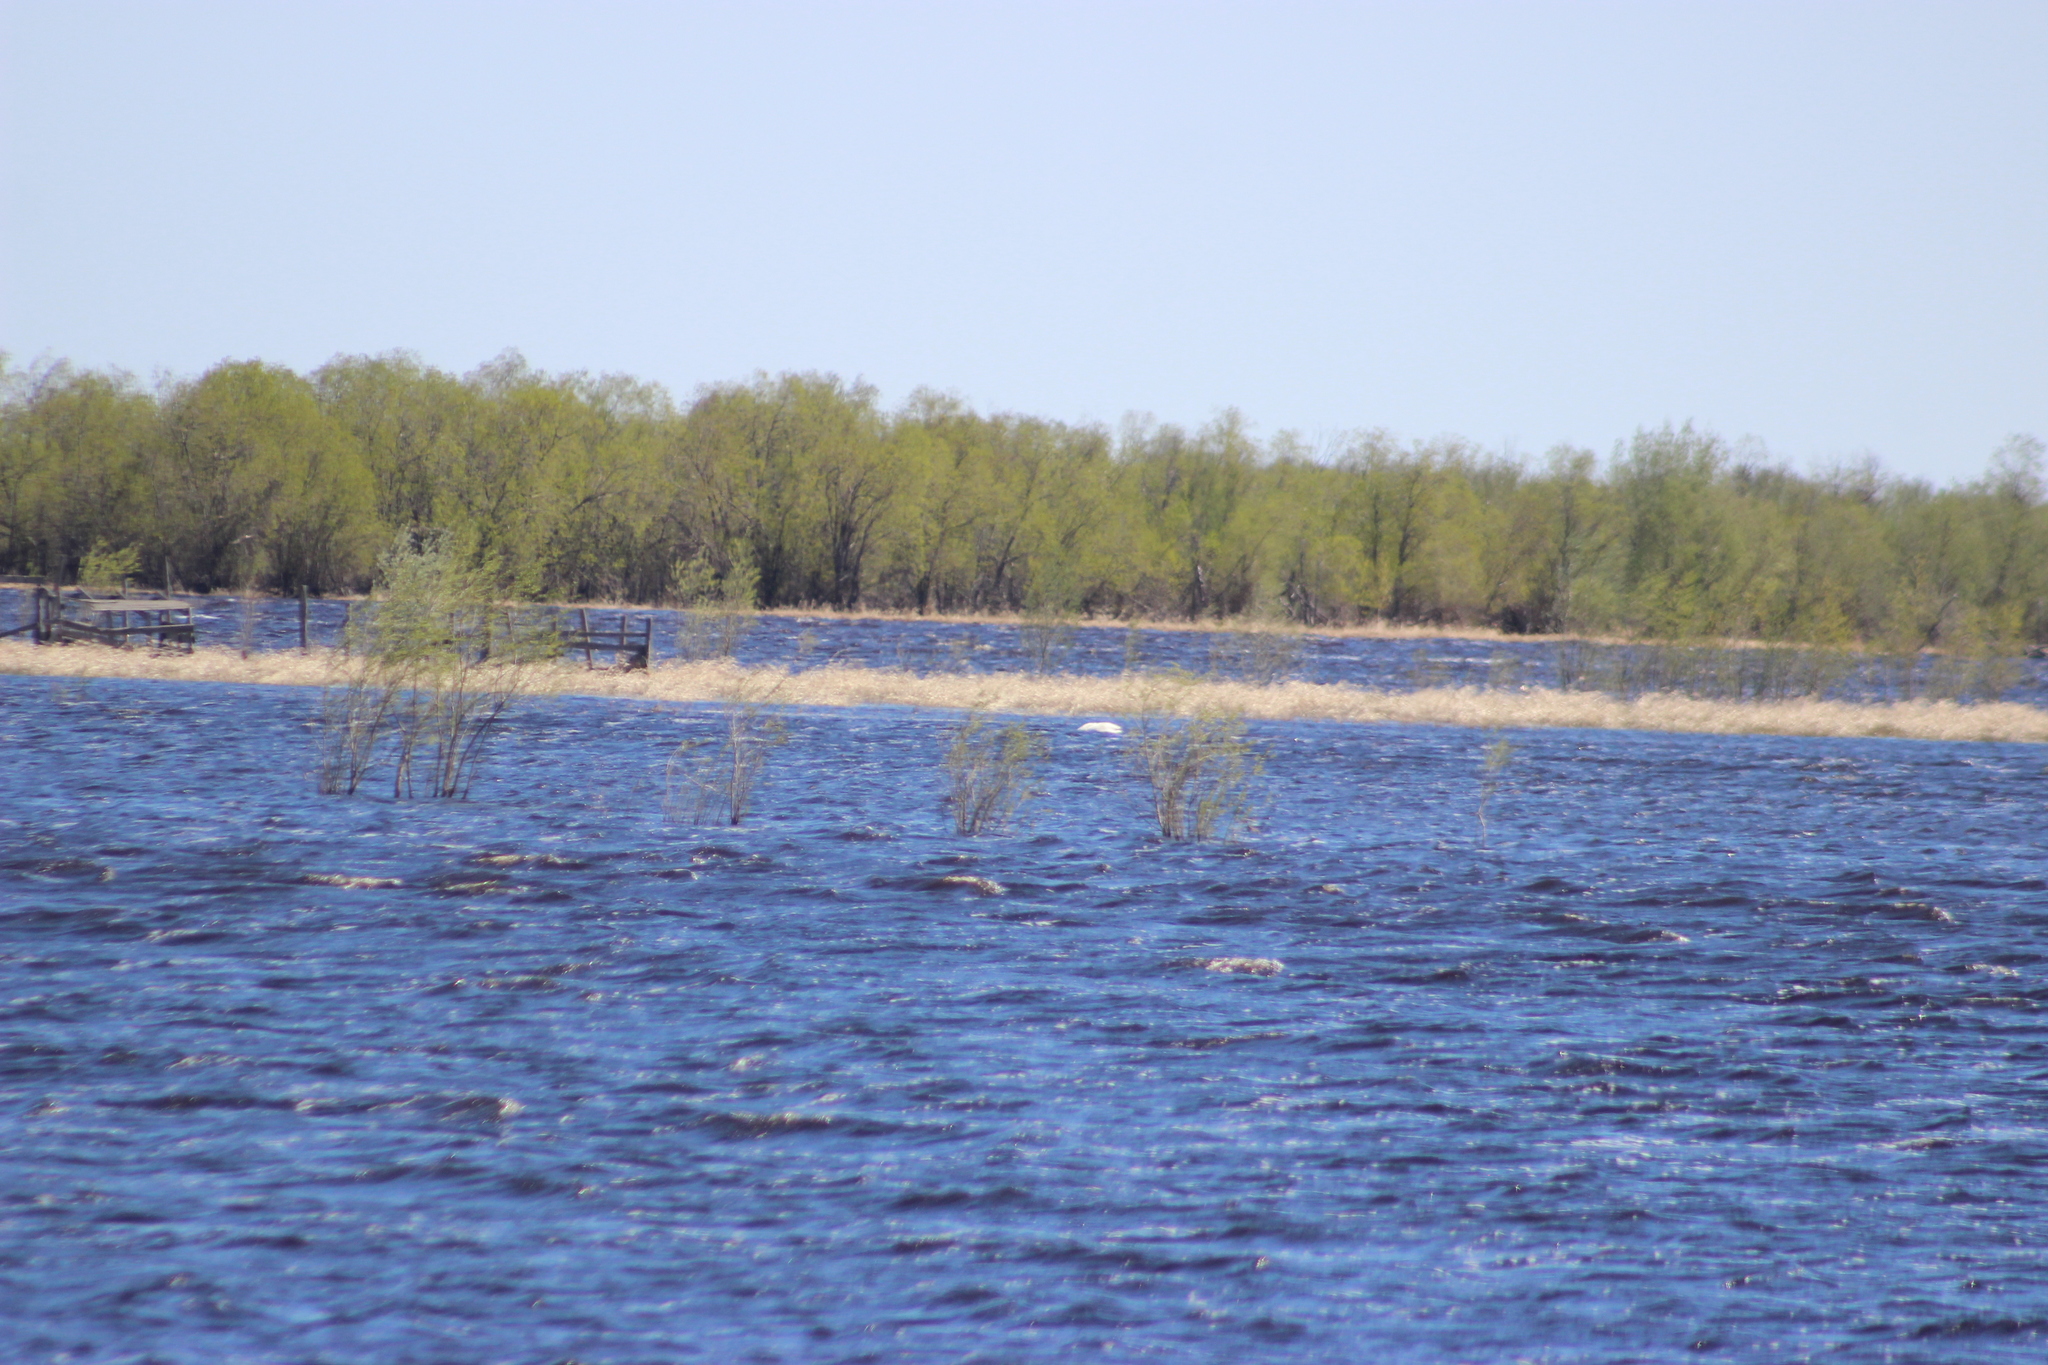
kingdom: Animalia
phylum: Chordata
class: Aves
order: Anseriformes
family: Anatidae
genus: Cygnus
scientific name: Cygnus cygnus
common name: Whooper swan
